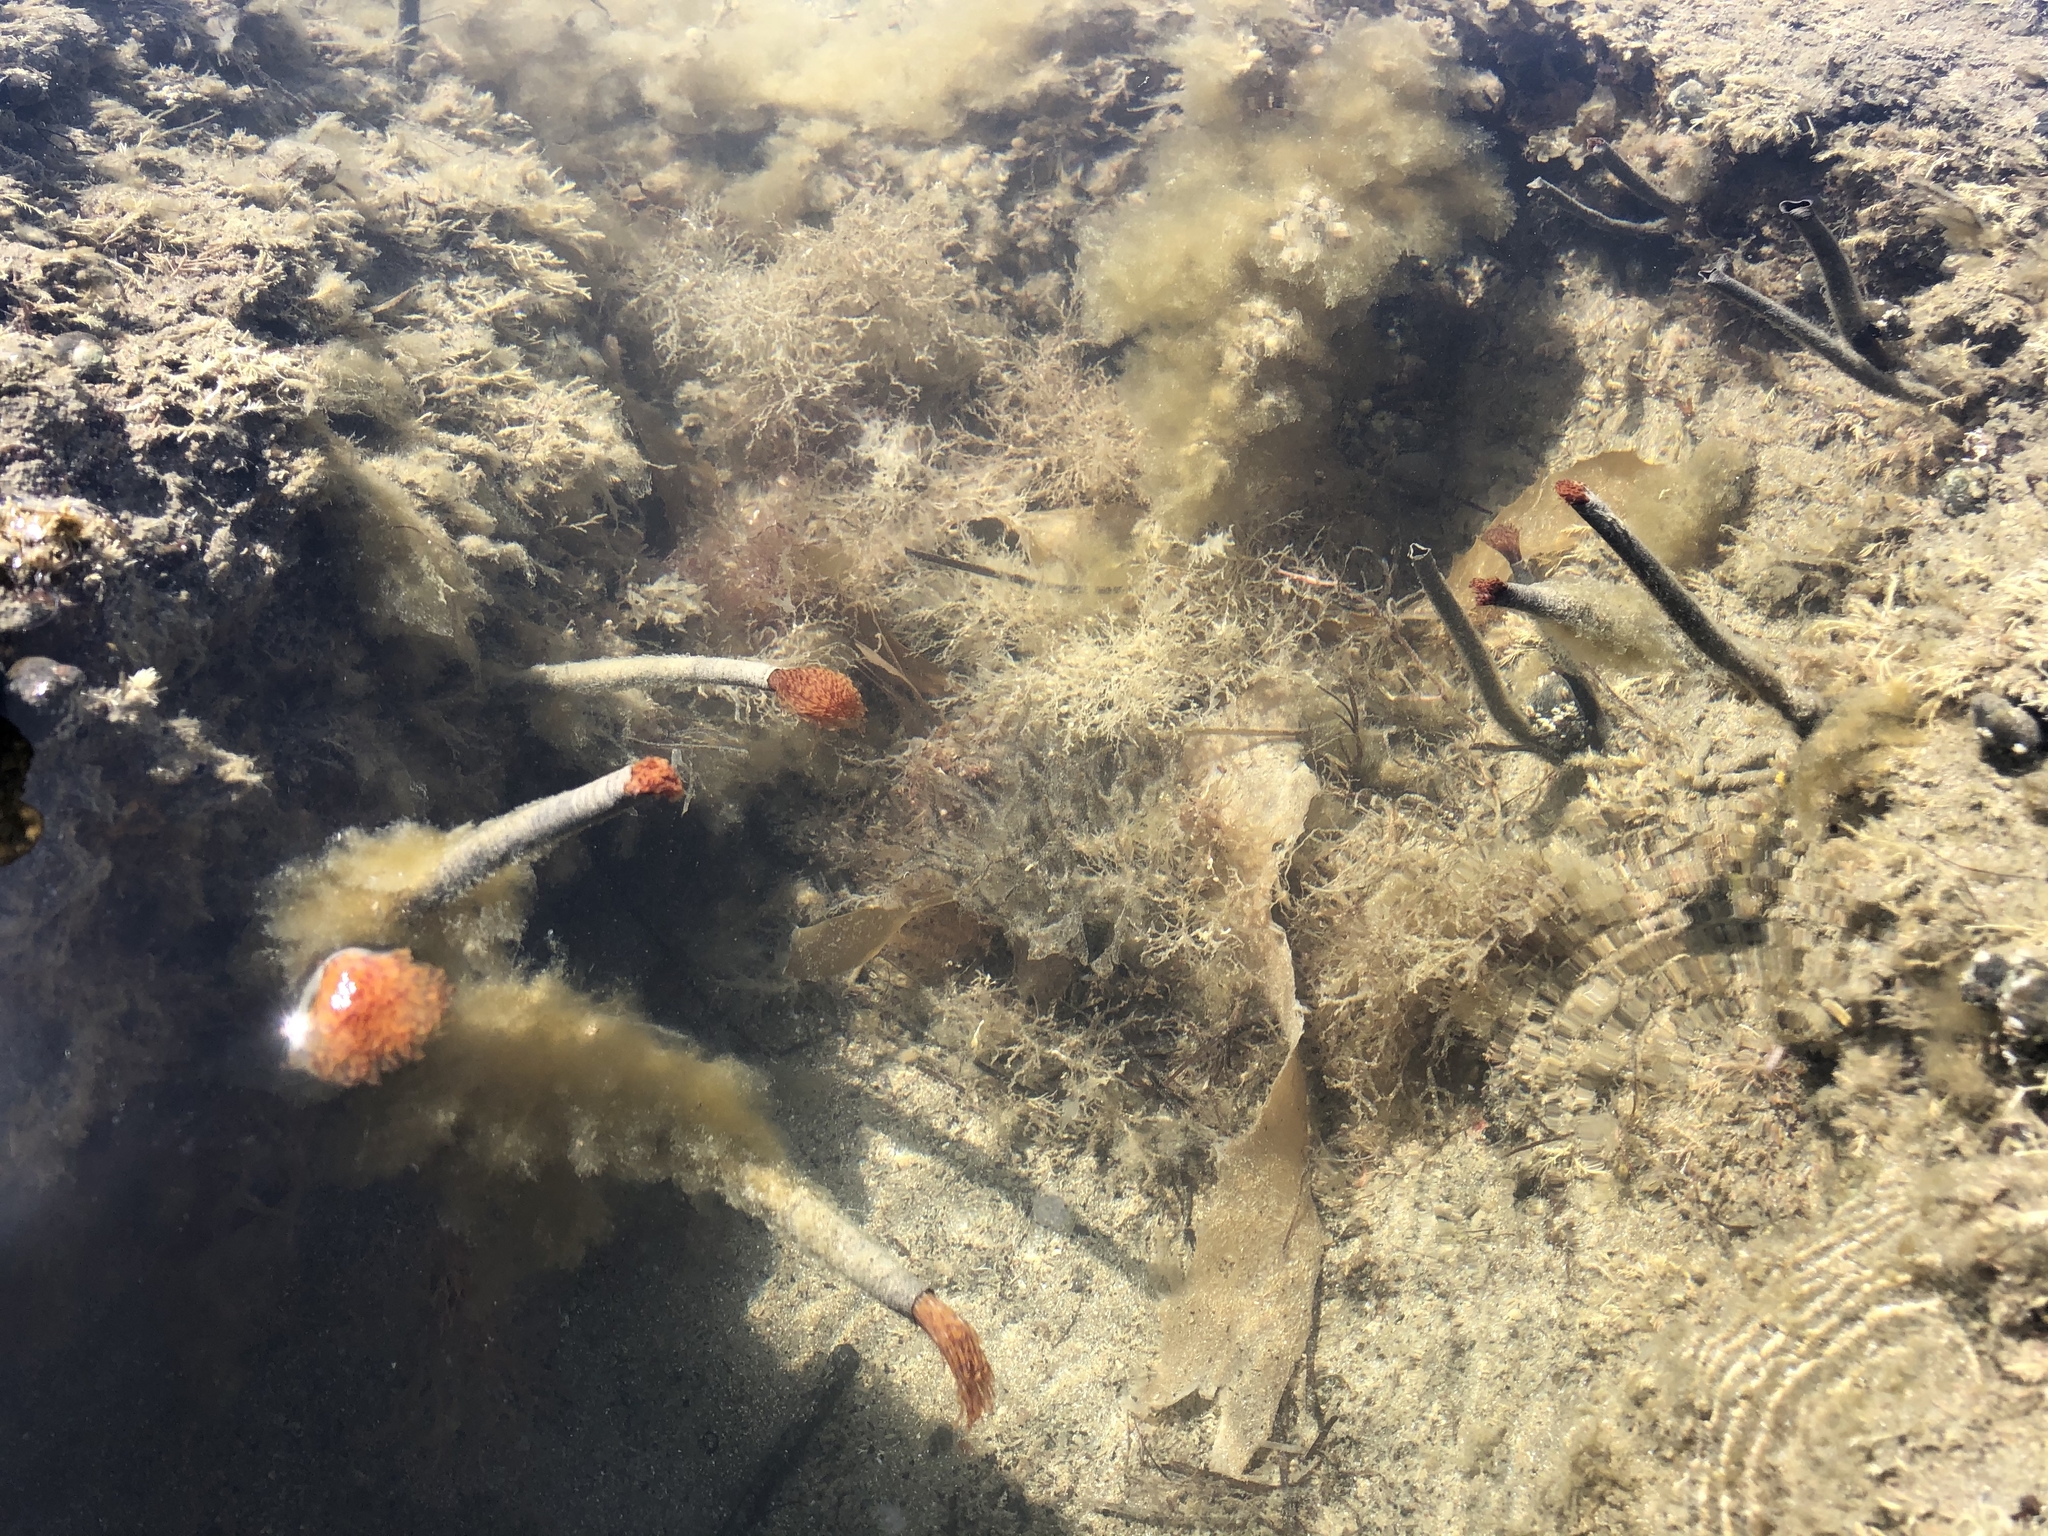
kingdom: Animalia
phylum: Annelida
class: Polychaeta
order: Sabellida
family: Sabellidae
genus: Sabella
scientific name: Sabella spallanzanii
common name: Feather duster worm
